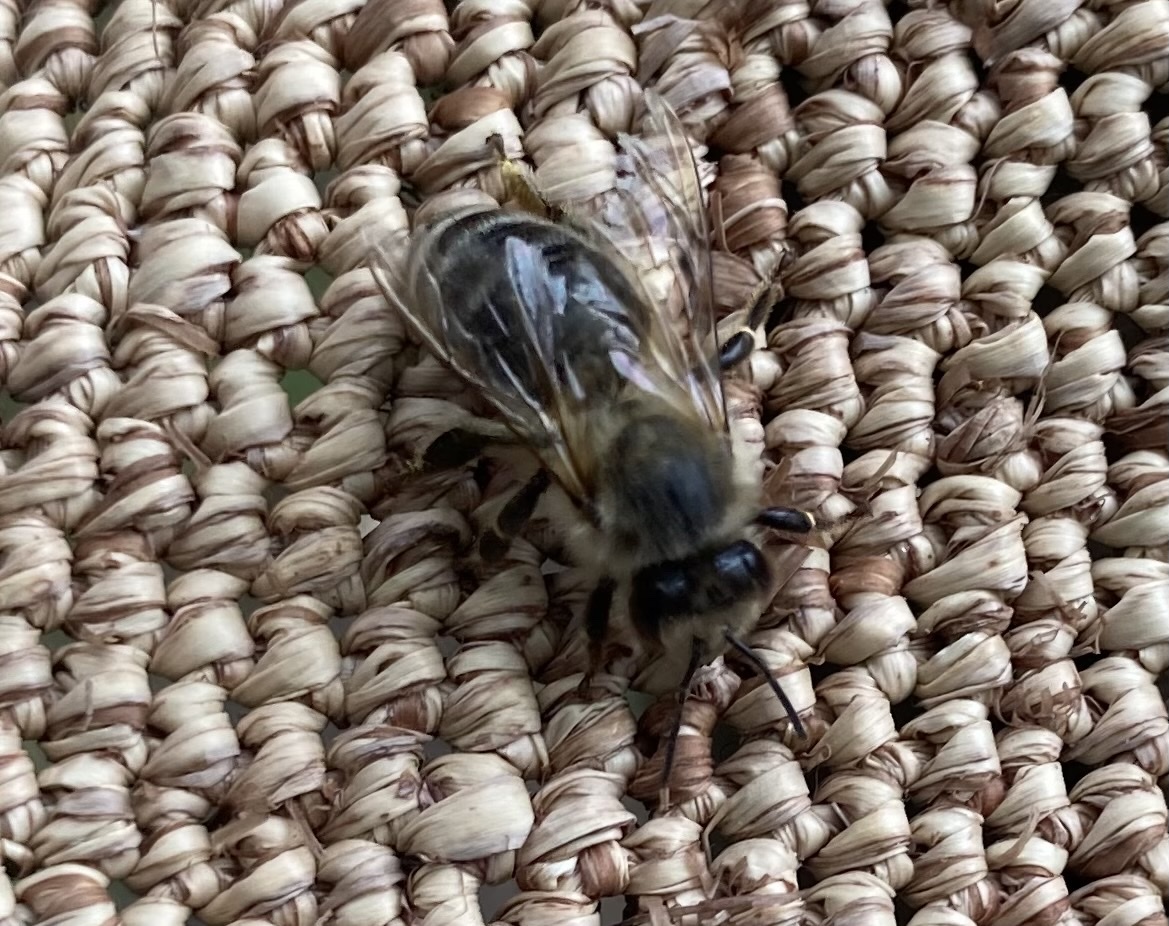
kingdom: Animalia
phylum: Arthropoda
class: Insecta
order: Hymenoptera
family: Apidae
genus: Apis
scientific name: Apis mellifera
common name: Honey bee
